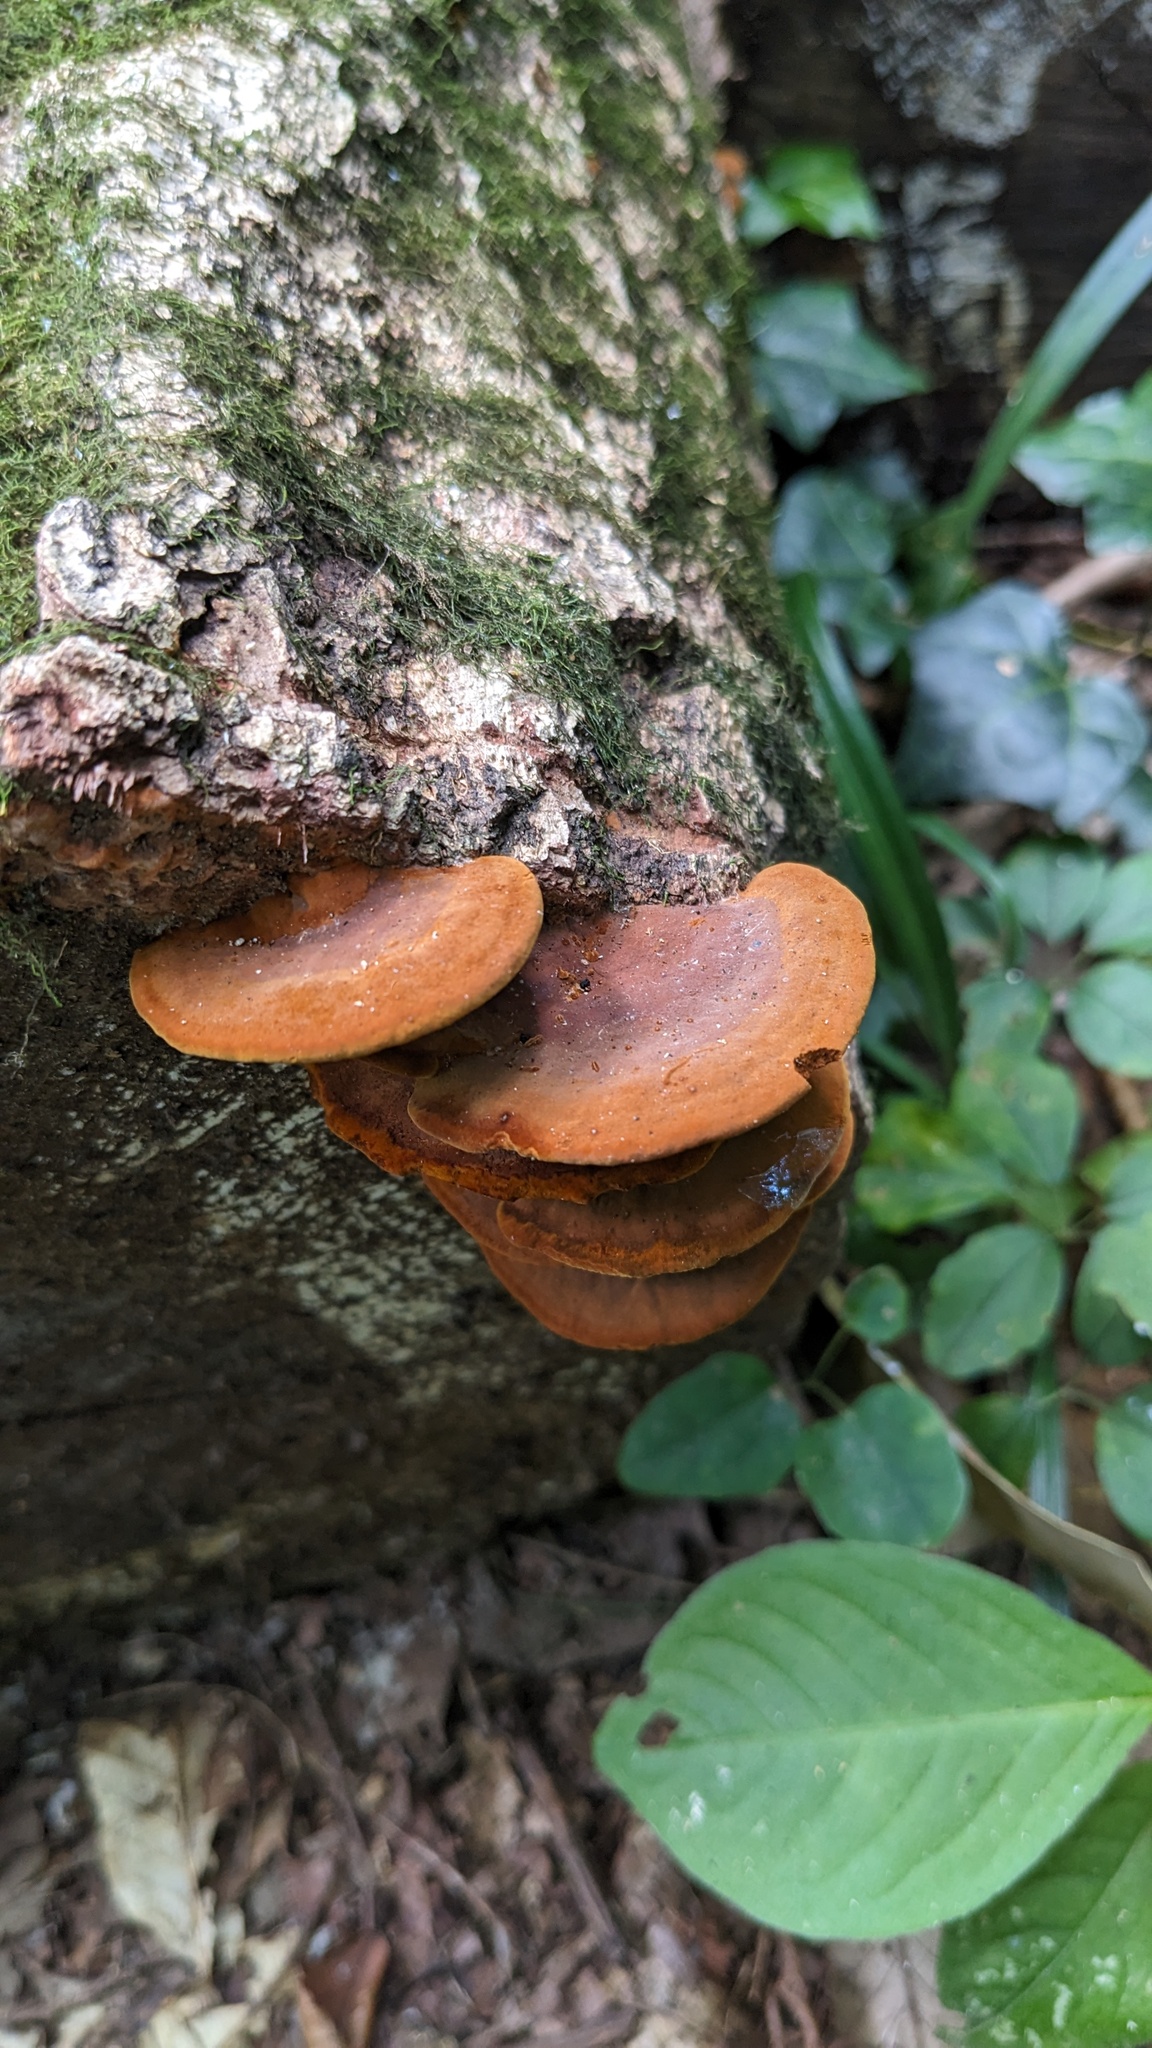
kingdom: Fungi
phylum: Basidiomycota
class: Agaricomycetes
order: Hymenochaetales
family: Hymenochaetaceae
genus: Phellinus
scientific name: Phellinus gilvus
